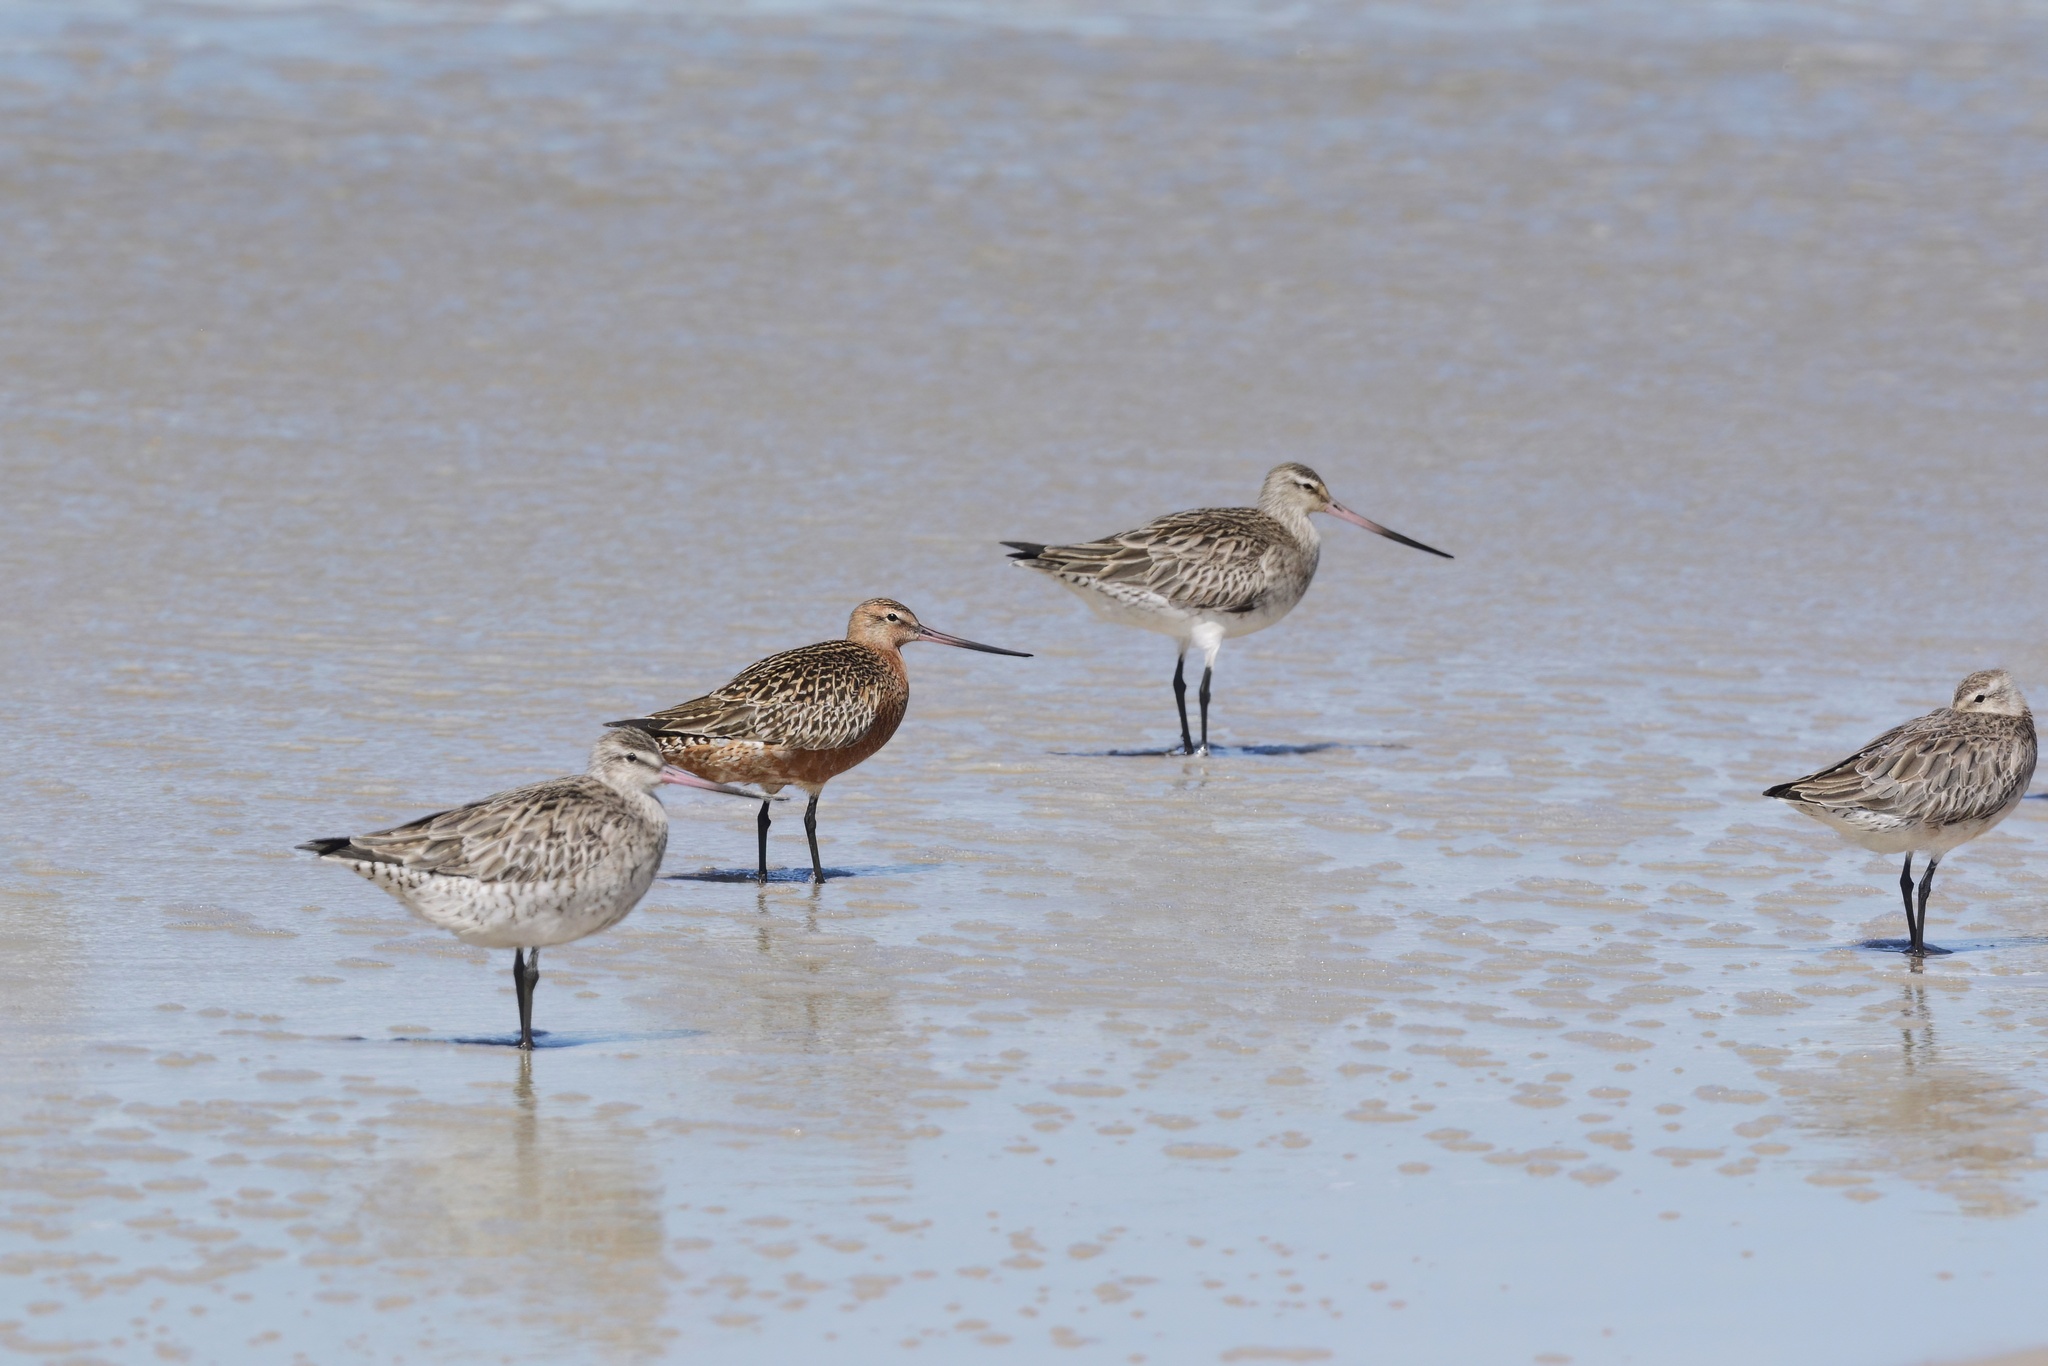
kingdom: Animalia
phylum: Chordata
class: Aves
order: Charadriiformes
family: Scolopacidae
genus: Limosa
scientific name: Limosa lapponica
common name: Bar-tailed godwit
